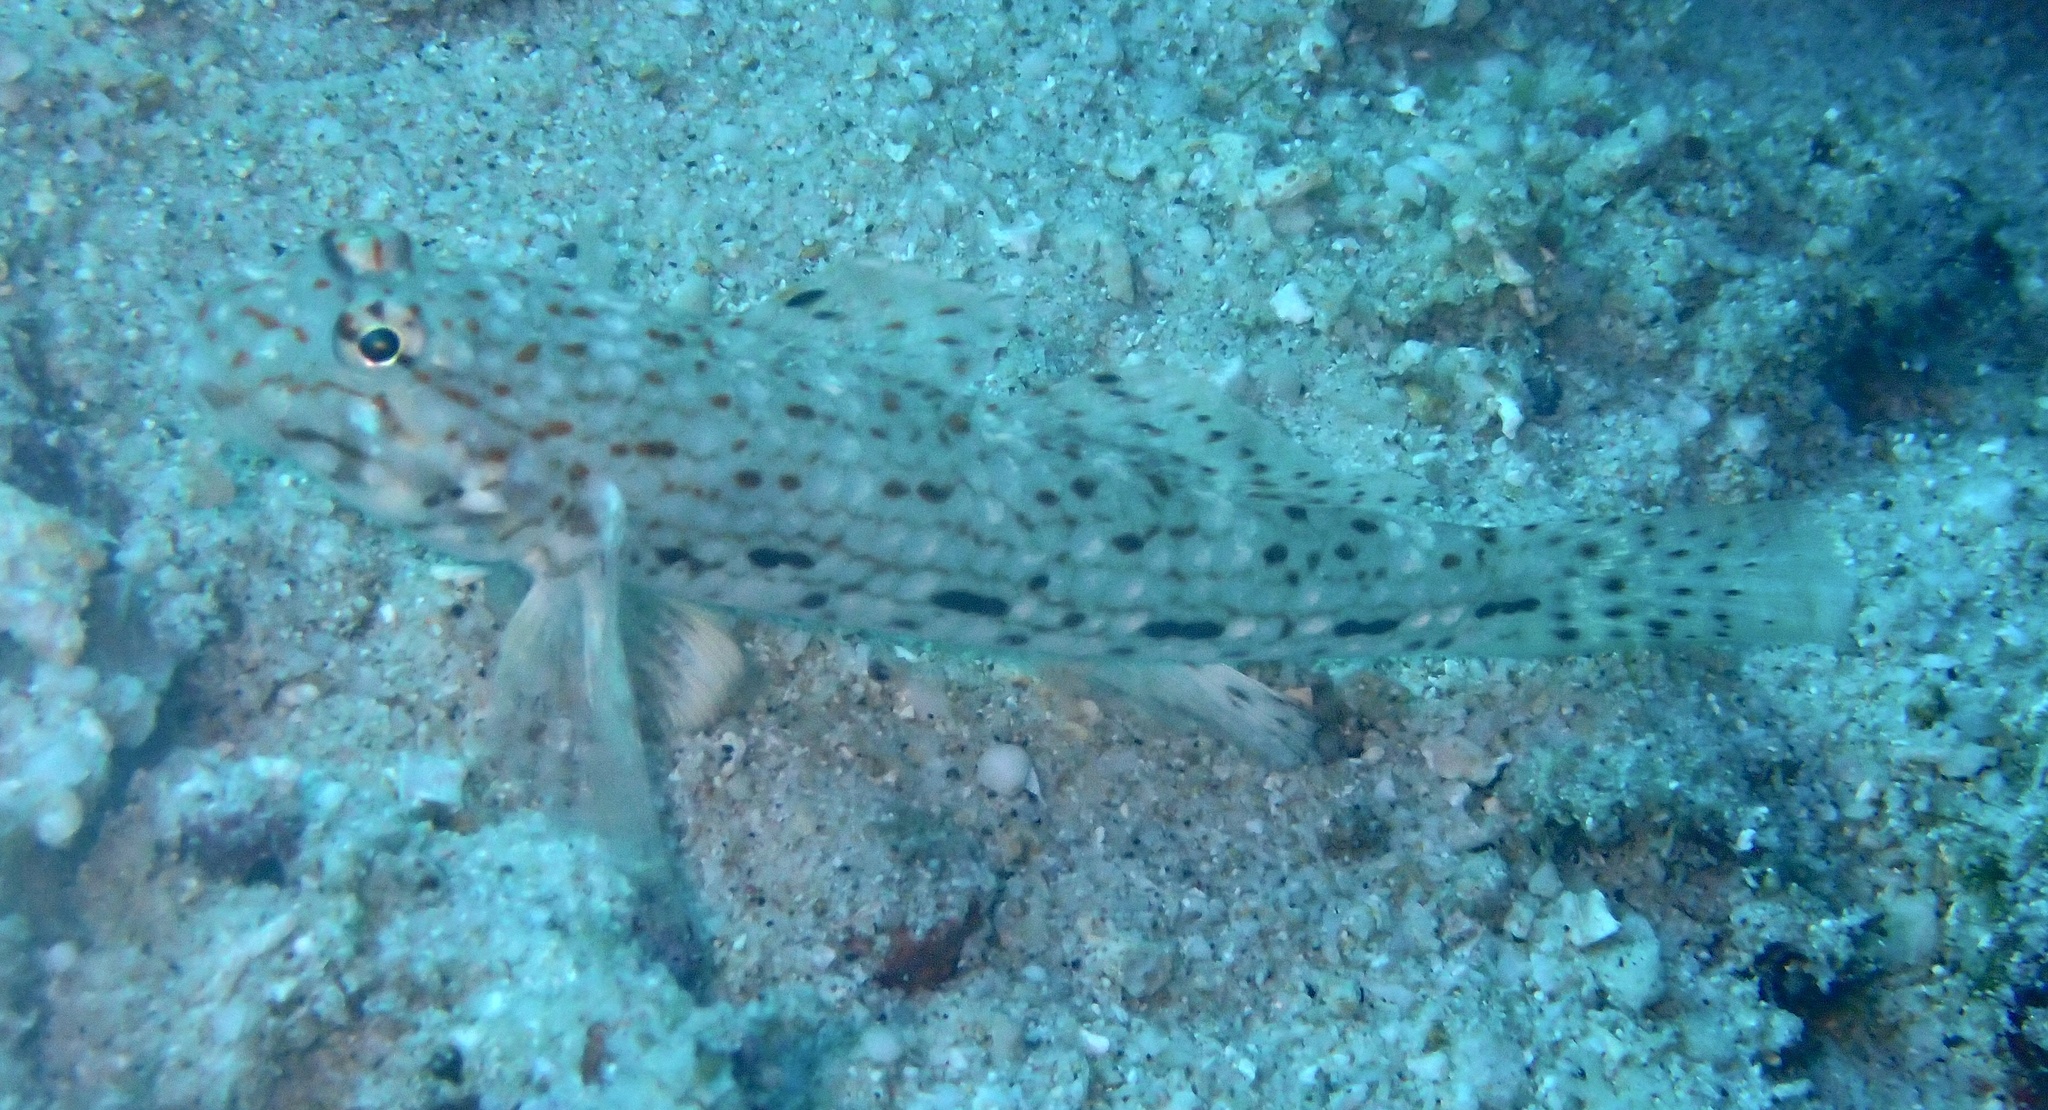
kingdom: Animalia
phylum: Chordata
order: Perciformes
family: Gobiidae
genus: Istigobius
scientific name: Istigobius decoratus
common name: Decorated goby
